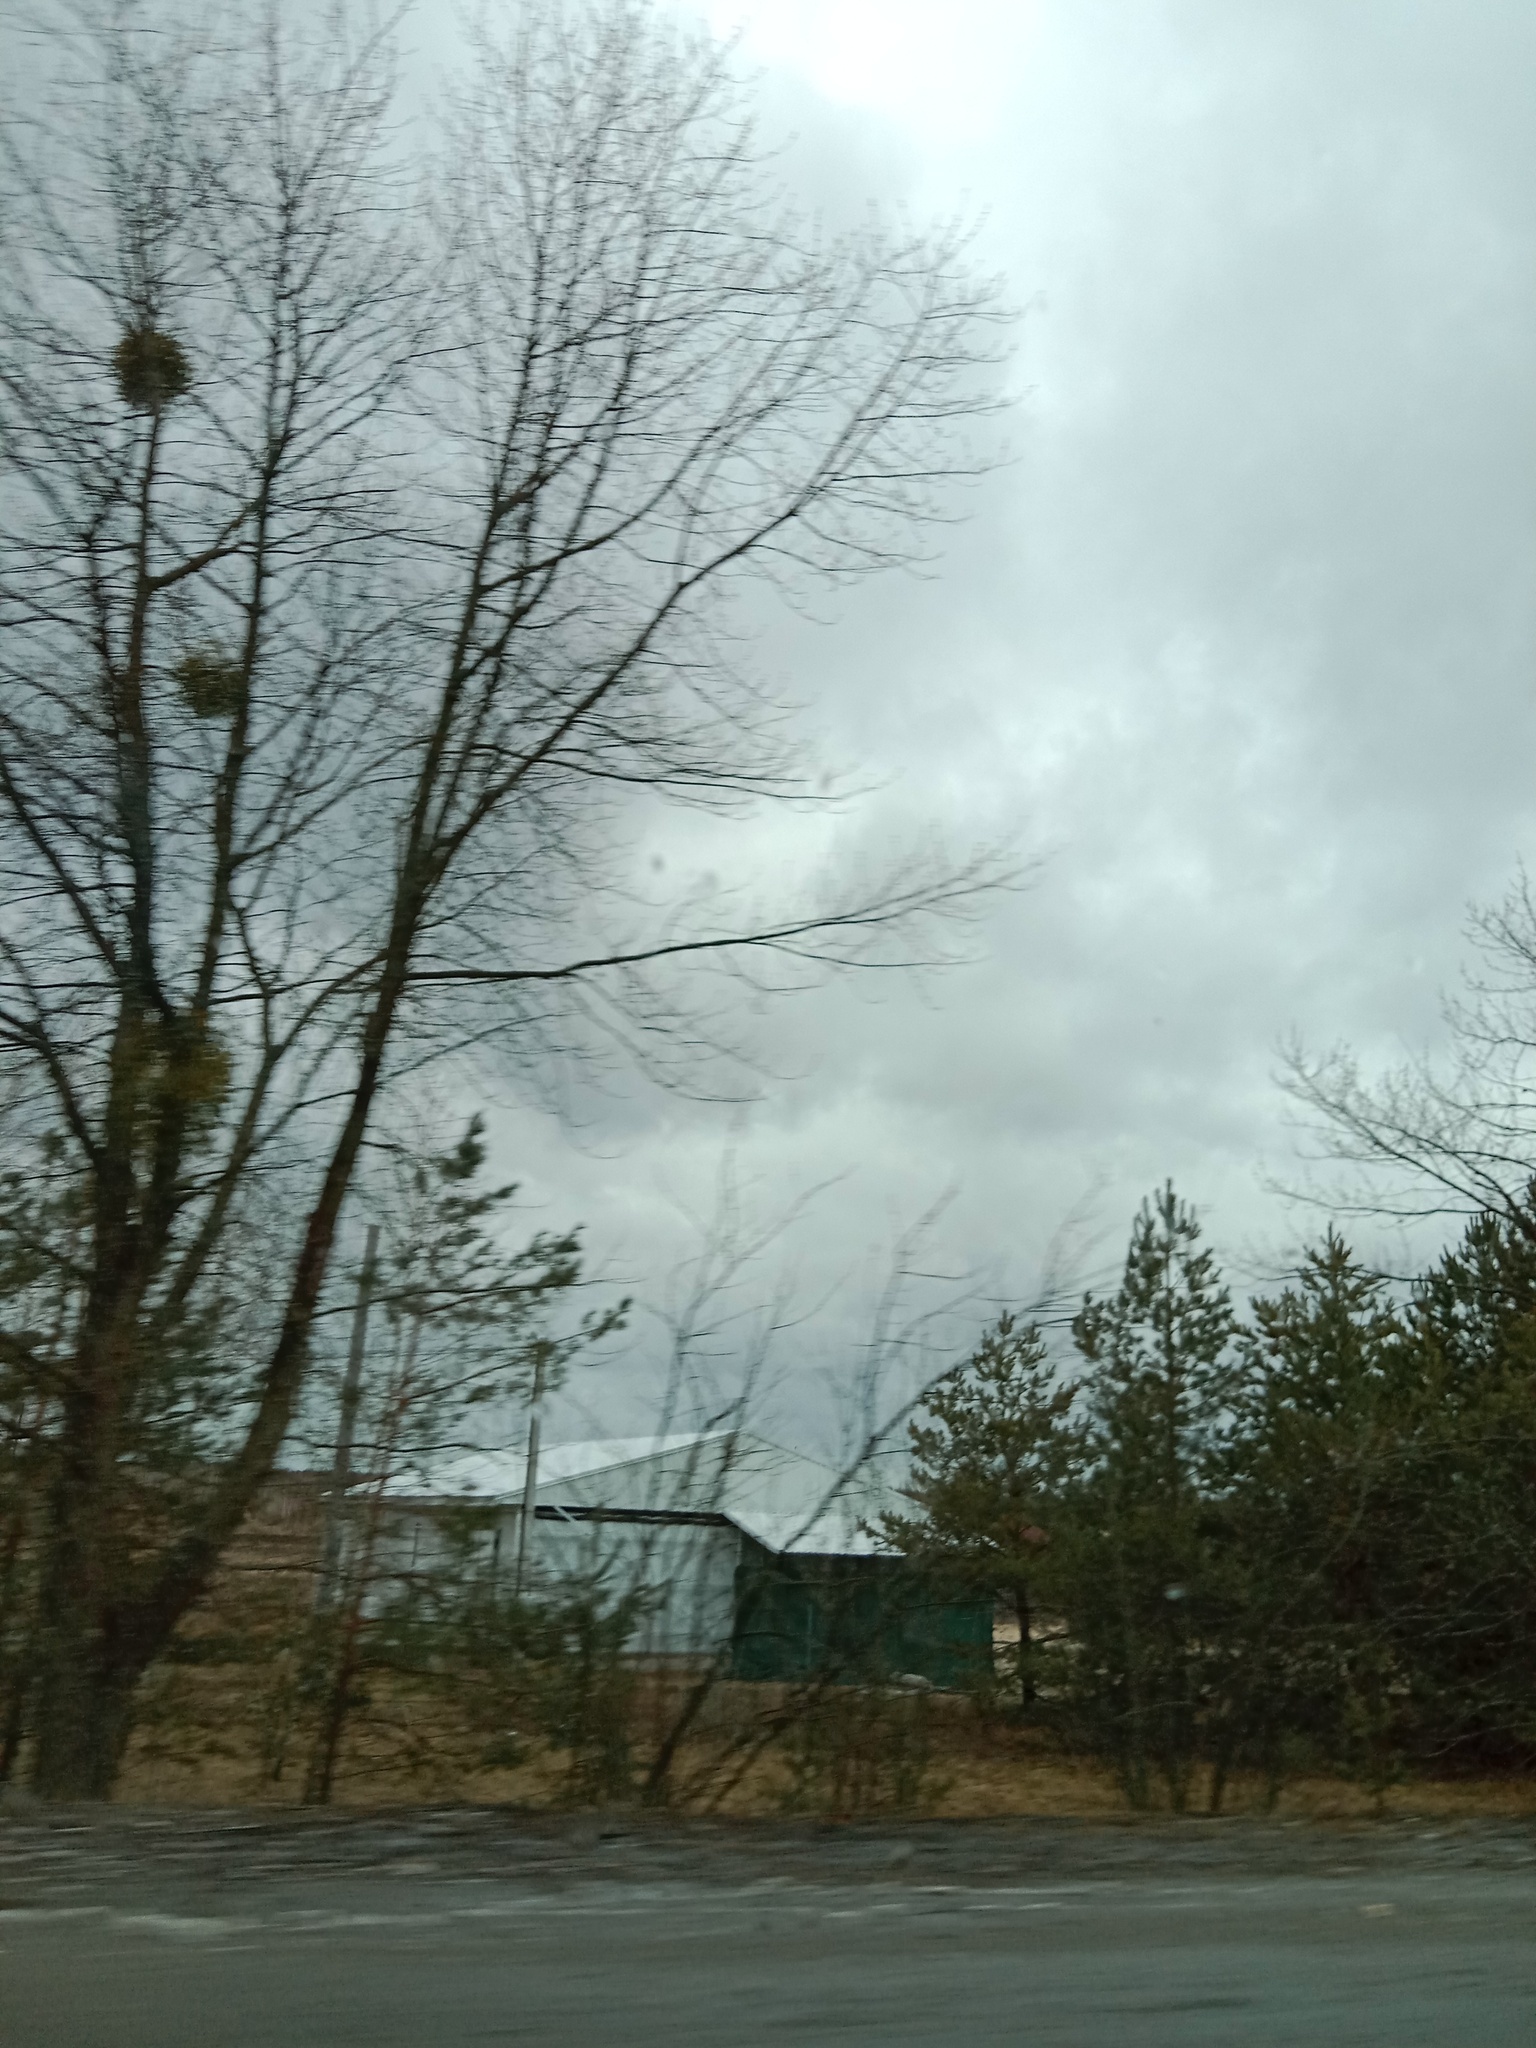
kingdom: Plantae
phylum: Tracheophyta
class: Magnoliopsida
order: Santalales
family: Viscaceae
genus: Viscum
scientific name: Viscum album
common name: Mistletoe
